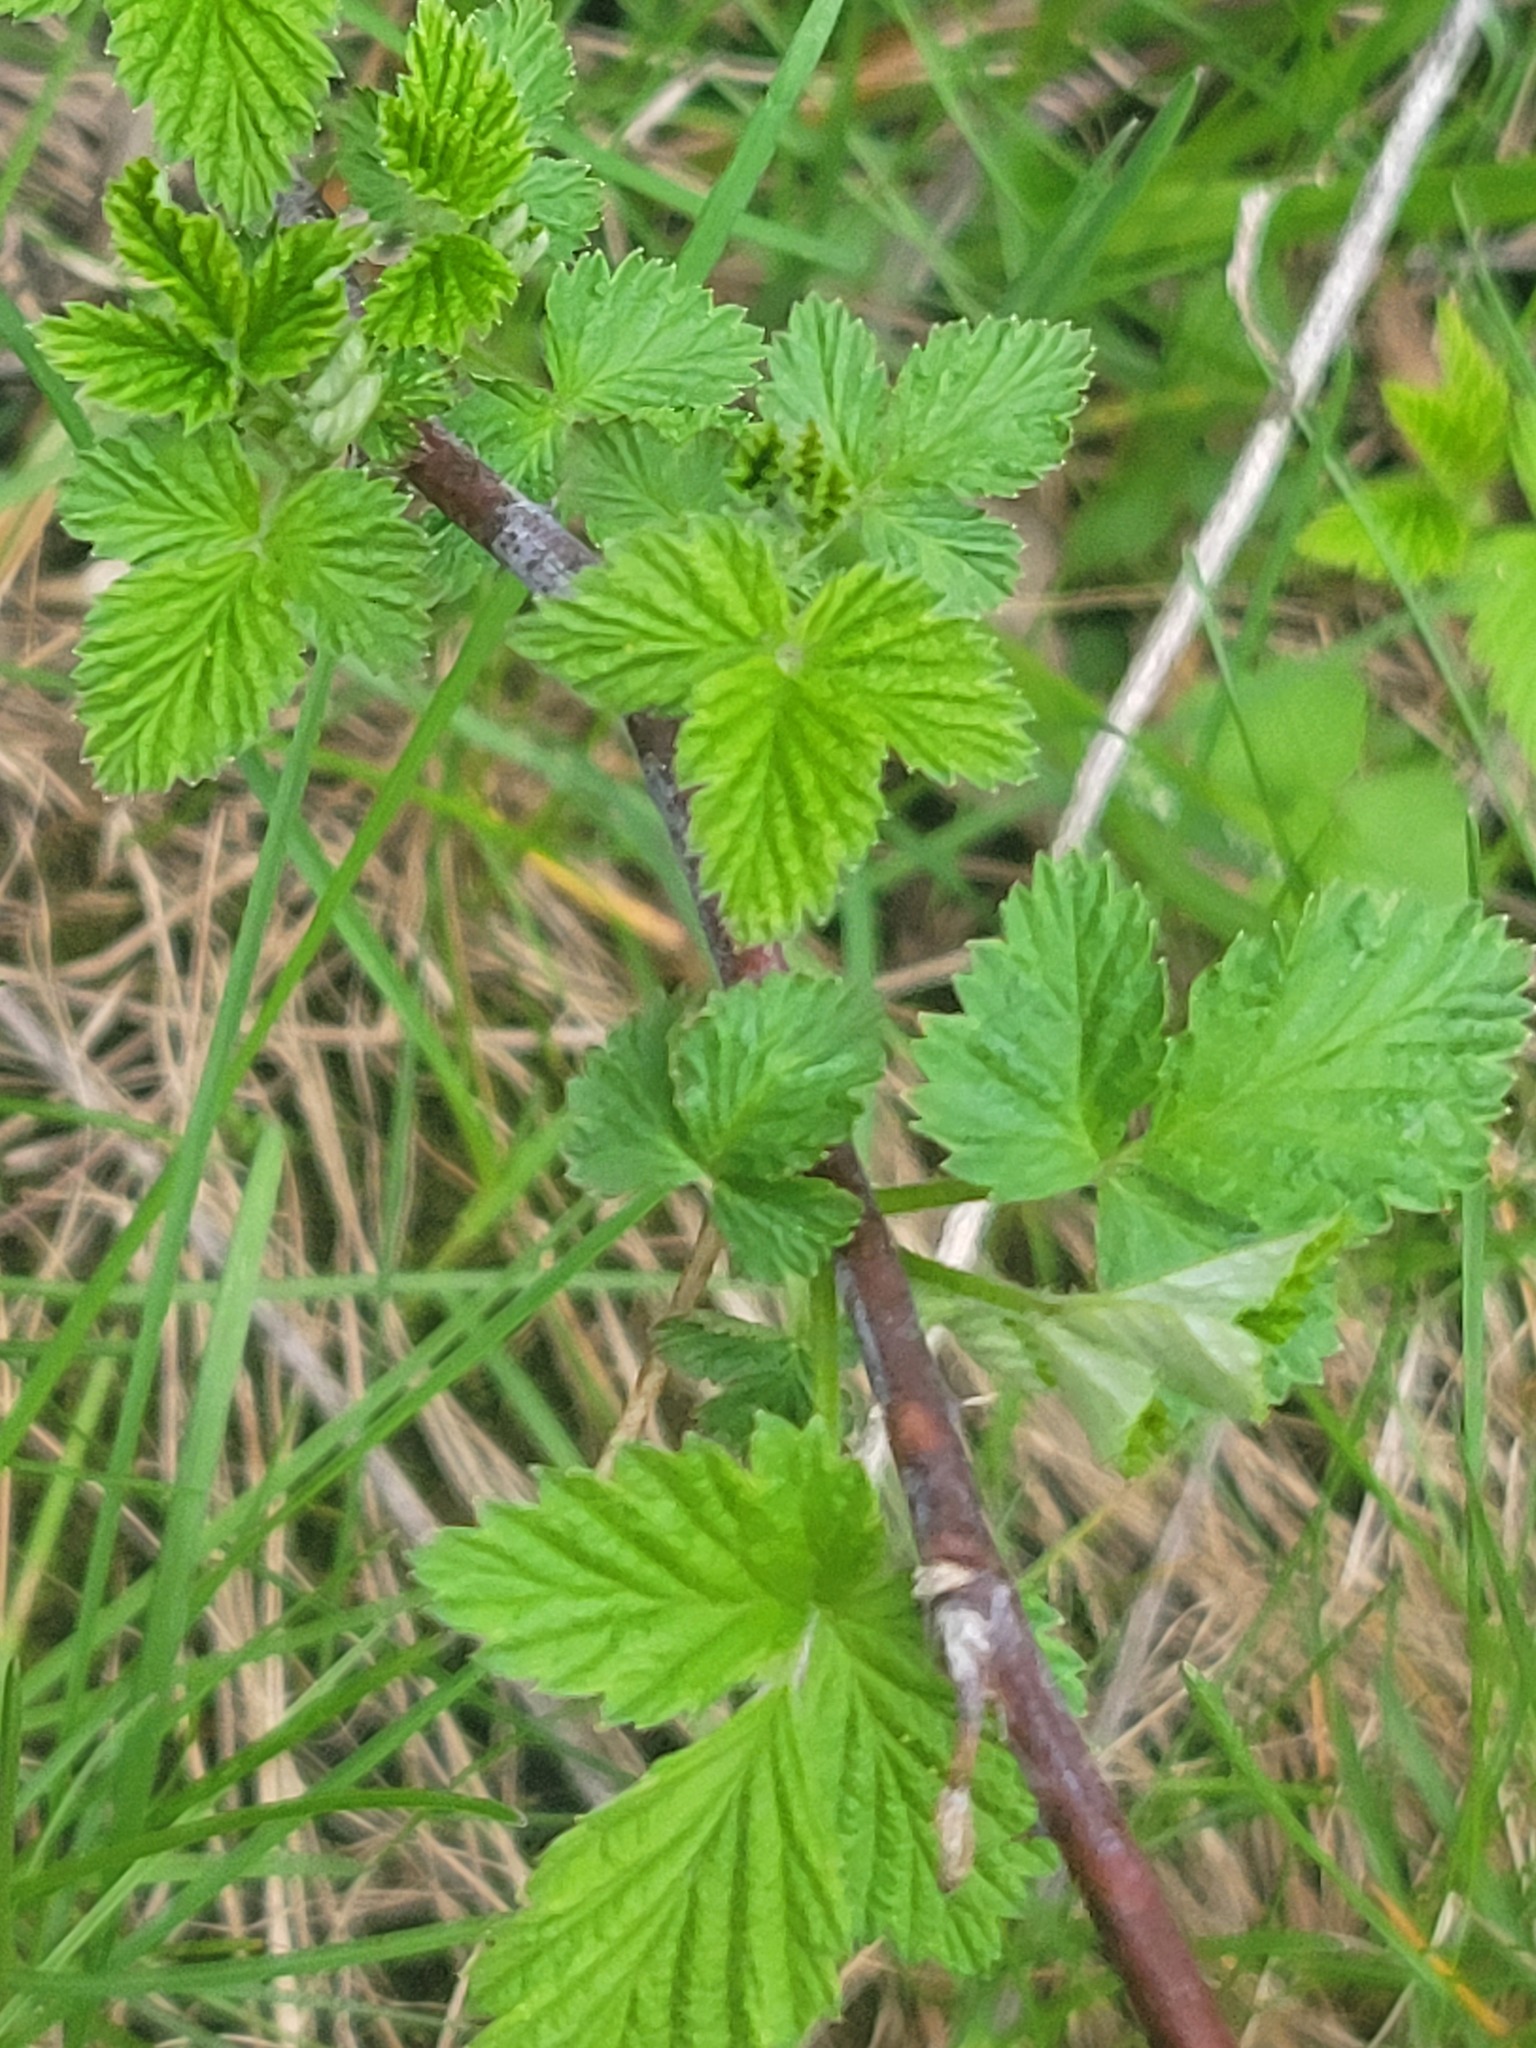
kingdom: Plantae
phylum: Tracheophyta
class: Magnoliopsida
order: Rosales
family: Rosaceae
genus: Rubus
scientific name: Rubus occidentalis
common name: Black raspberry
